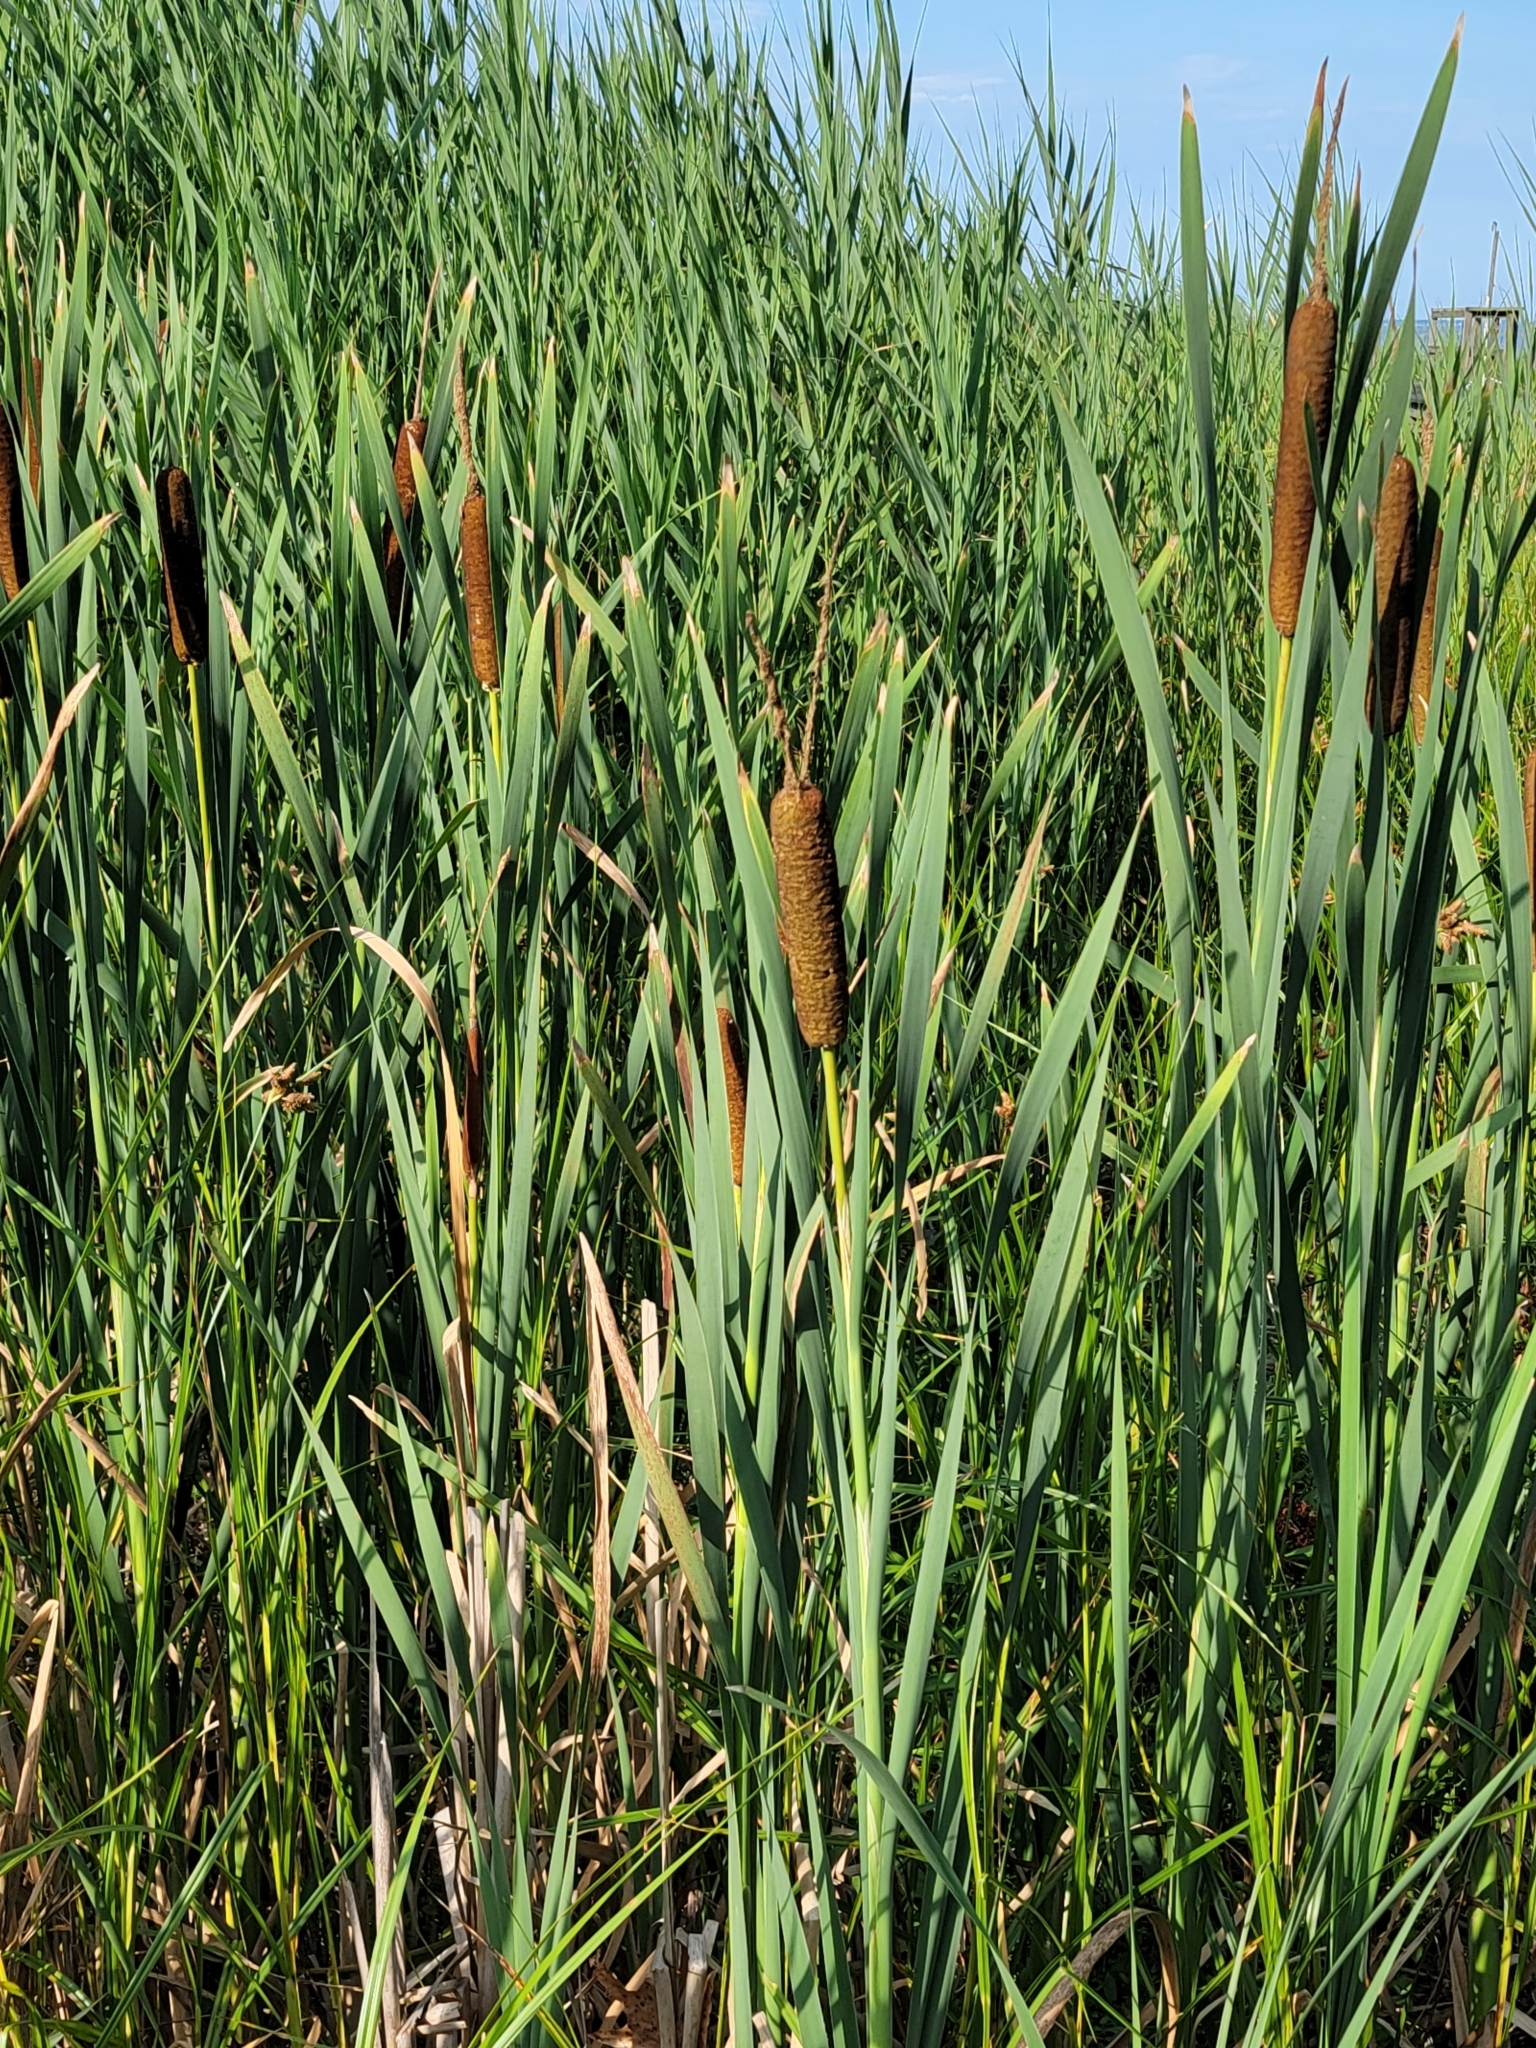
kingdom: Plantae
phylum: Tracheophyta
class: Liliopsida
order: Poales
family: Typhaceae
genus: Typha
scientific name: Typha latifolia
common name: Broadleaf cattail
